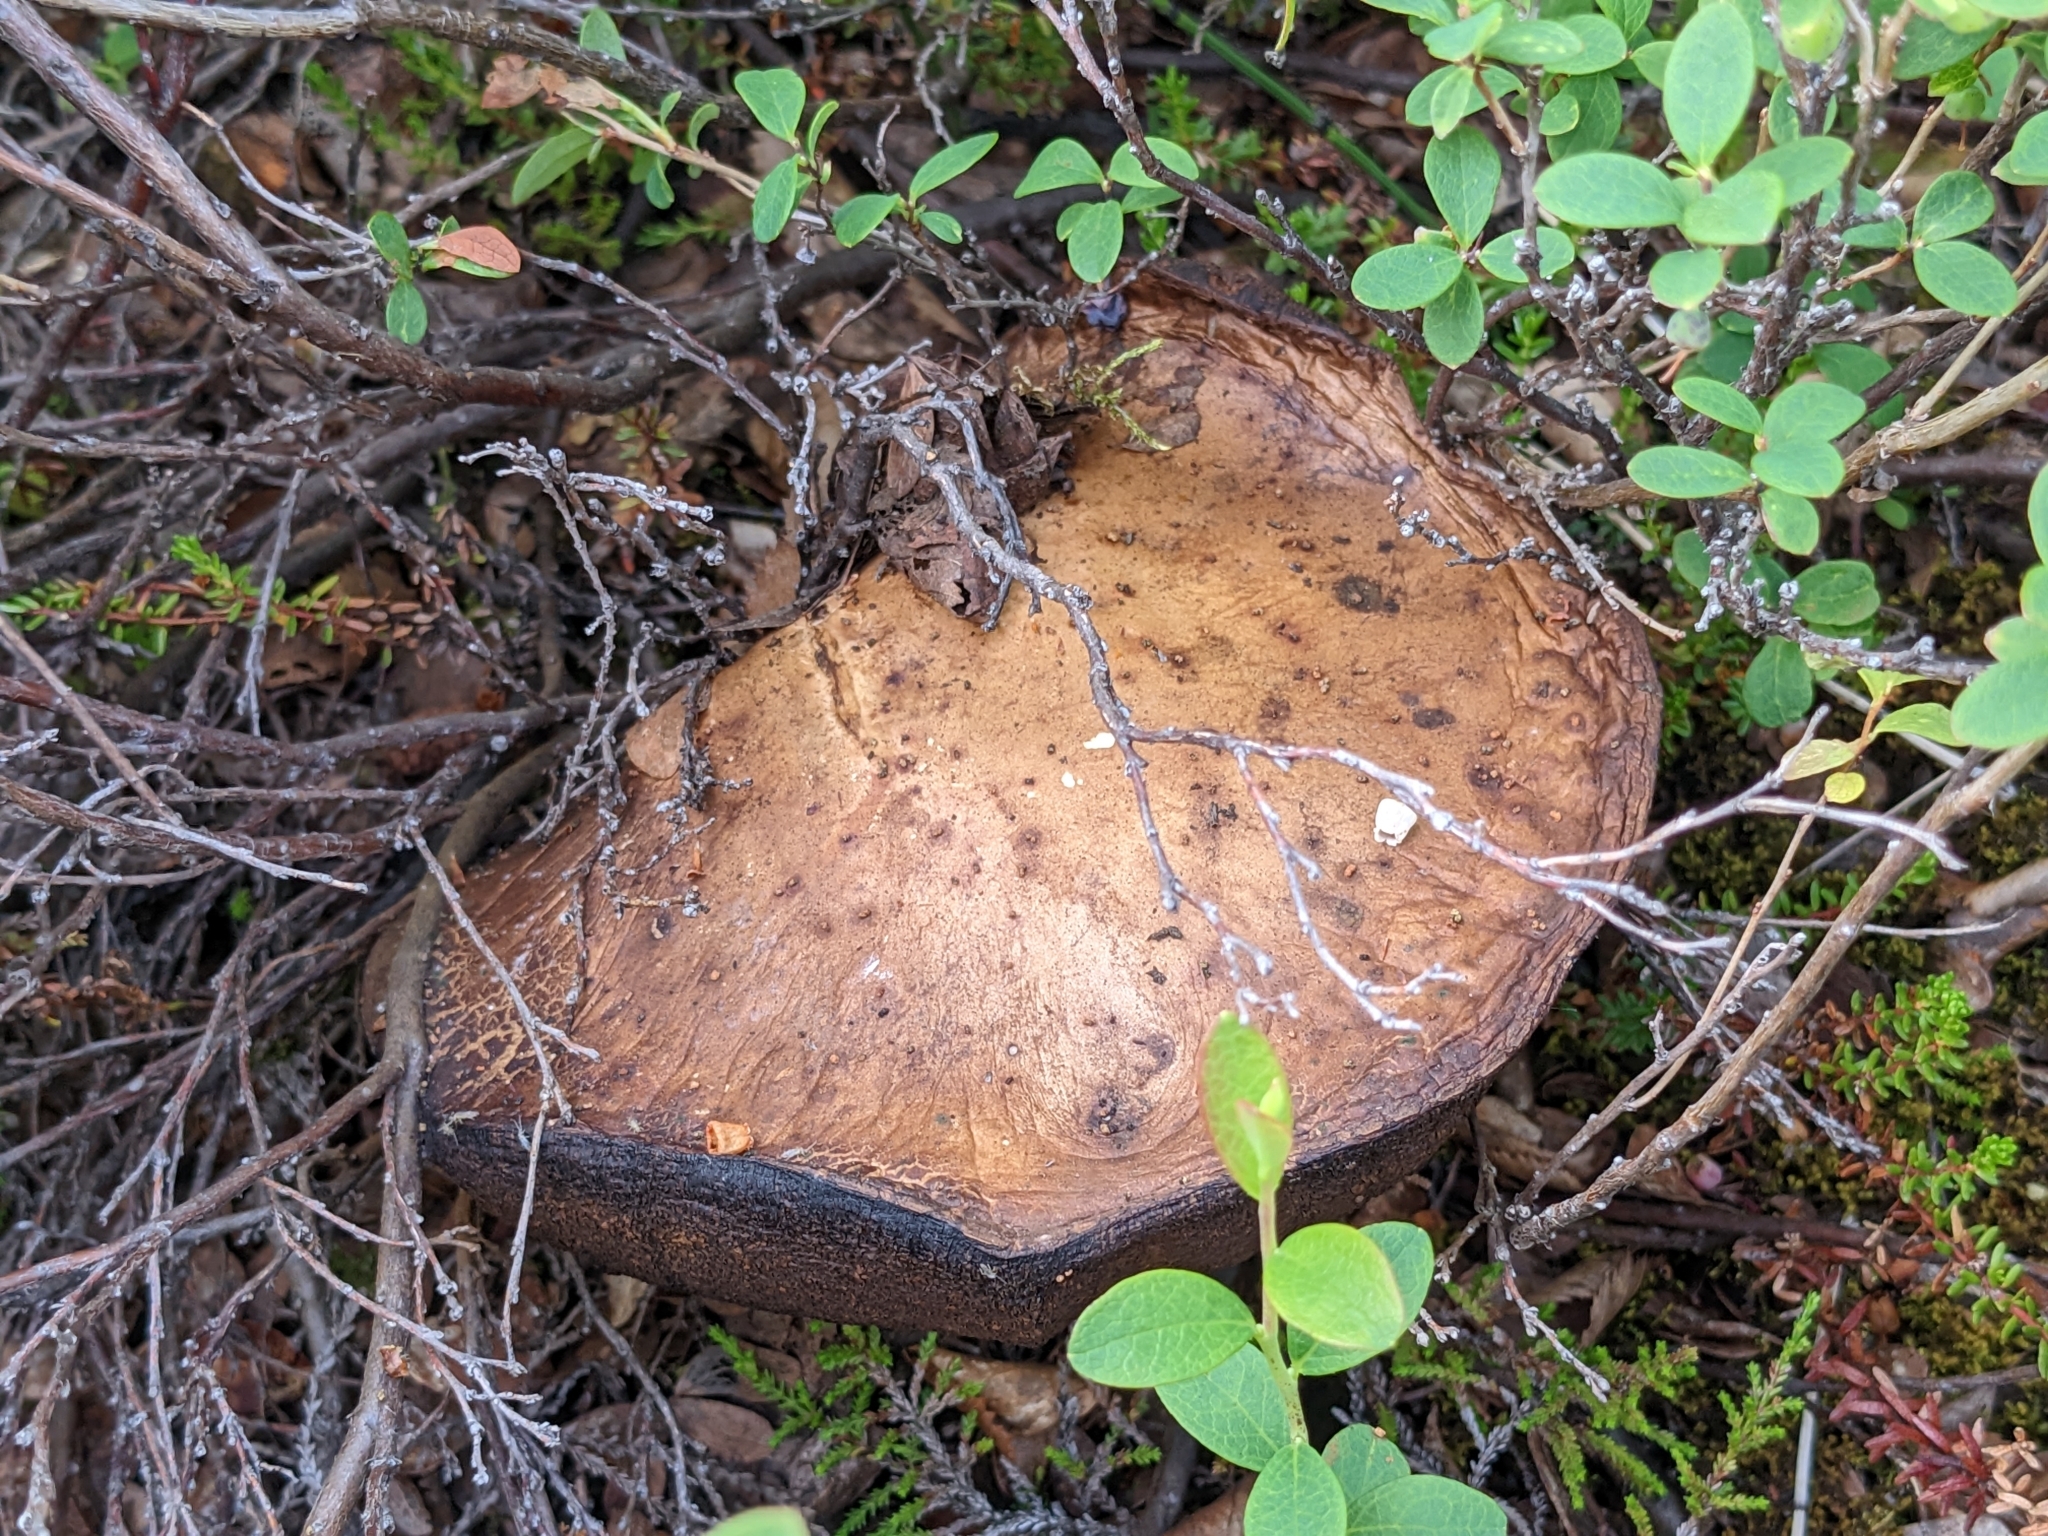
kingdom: Fungi
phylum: Basidiomycota
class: Agaricomycetes
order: Boletales
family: Boletaceae
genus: Leccinum
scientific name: Leccinum scabrum
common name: Blushing bolete
